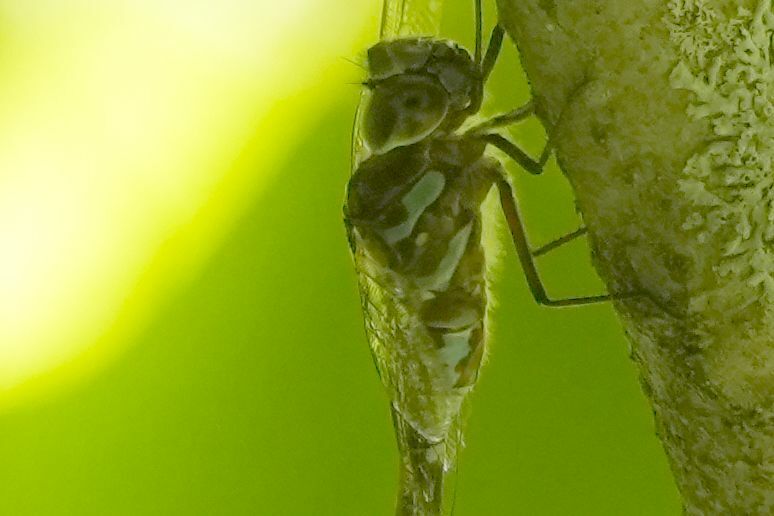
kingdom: Animalia
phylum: Arthropoda
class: Insecta
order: Odonata
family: Aeshnidae
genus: Aeshna
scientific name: Aeshna canadensis
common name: Canada darner
